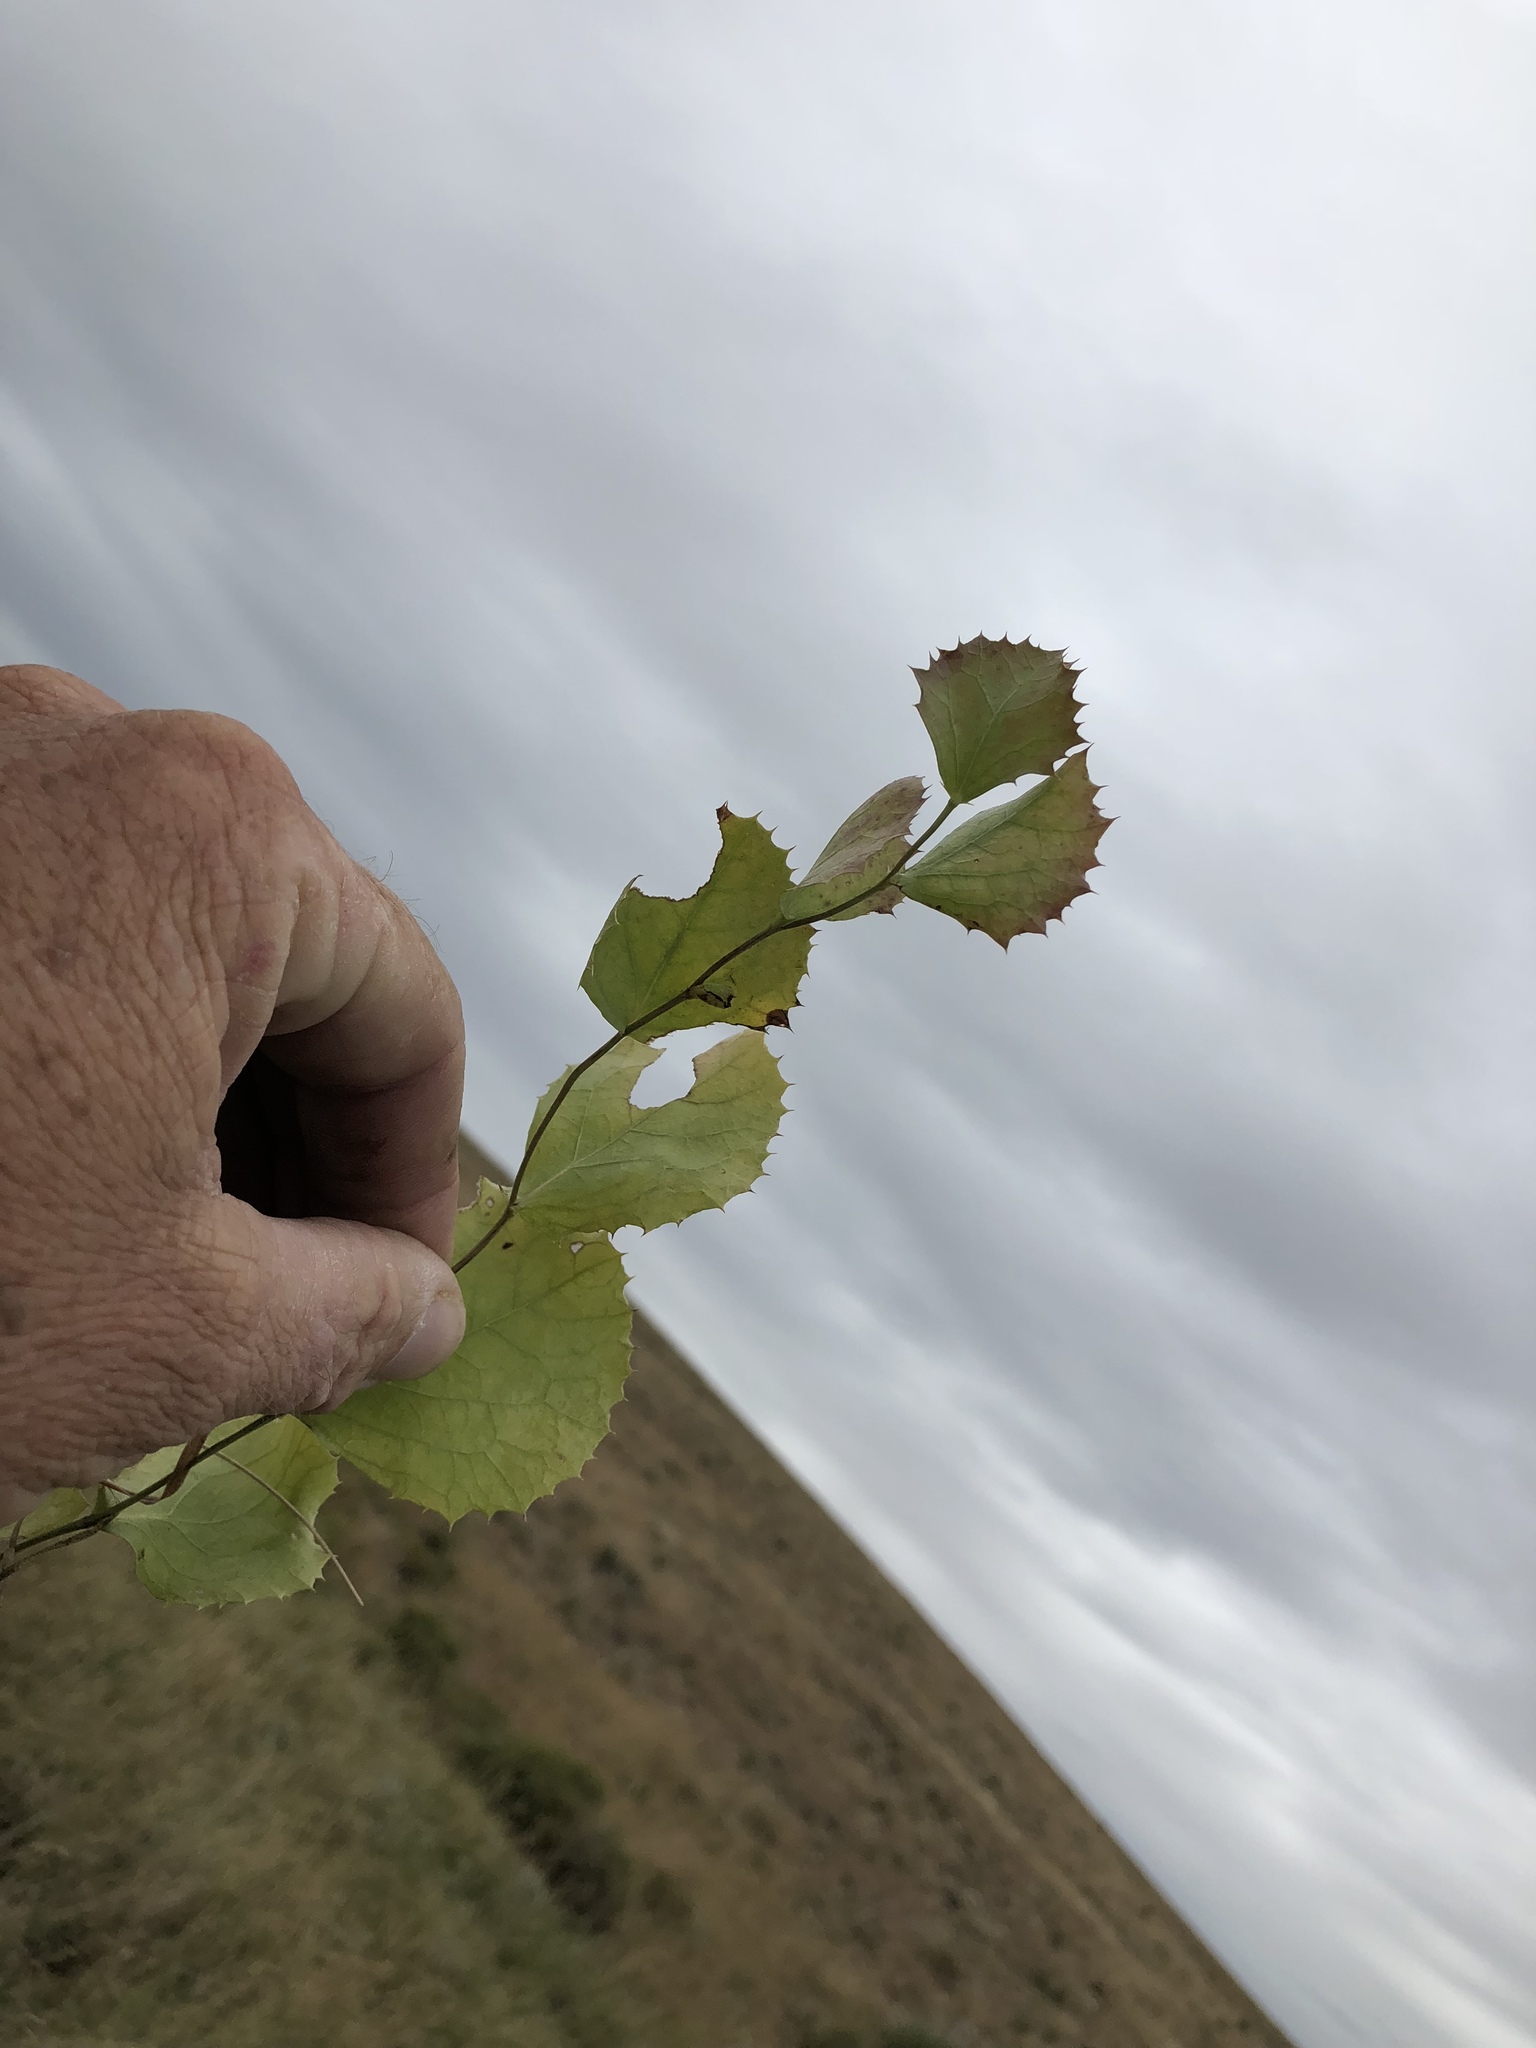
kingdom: Plantae
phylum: Tracheophyta
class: Magnoliopsida
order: Asterales
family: Asteraceae
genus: Acourtia
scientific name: Acourtia nana
